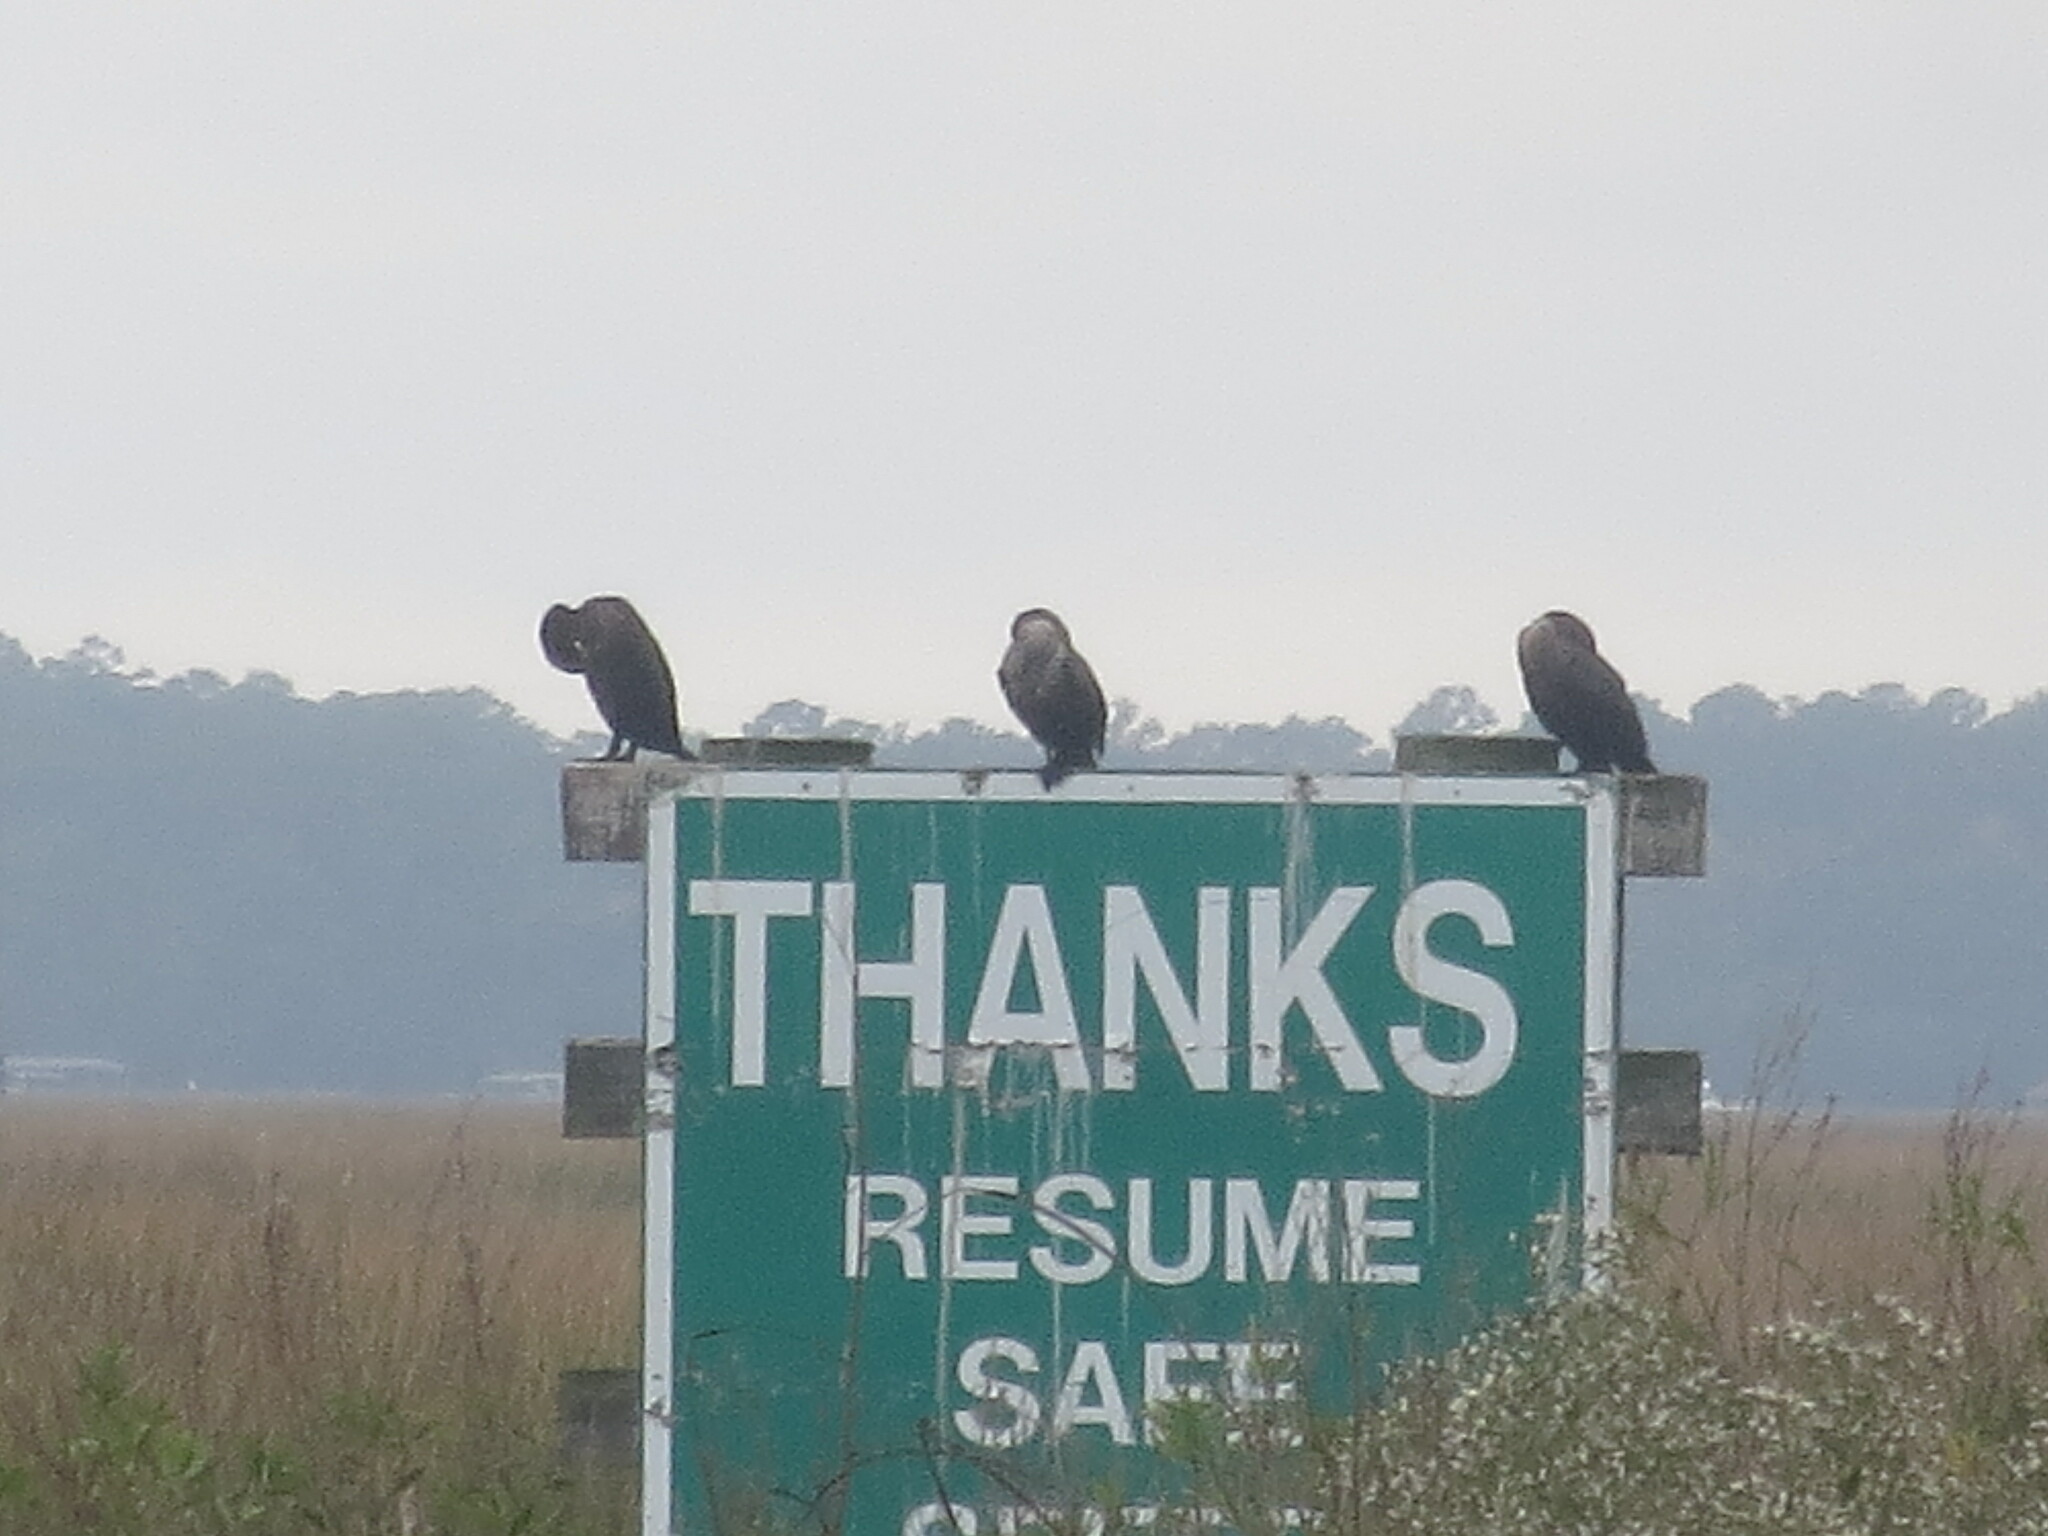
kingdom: Animalia
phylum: Chordata
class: Aves
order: Suliformes
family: Phalacrocoracidae
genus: Phalacrocorax
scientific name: Phalacrocorax auritus
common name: Double-crested cormorant
